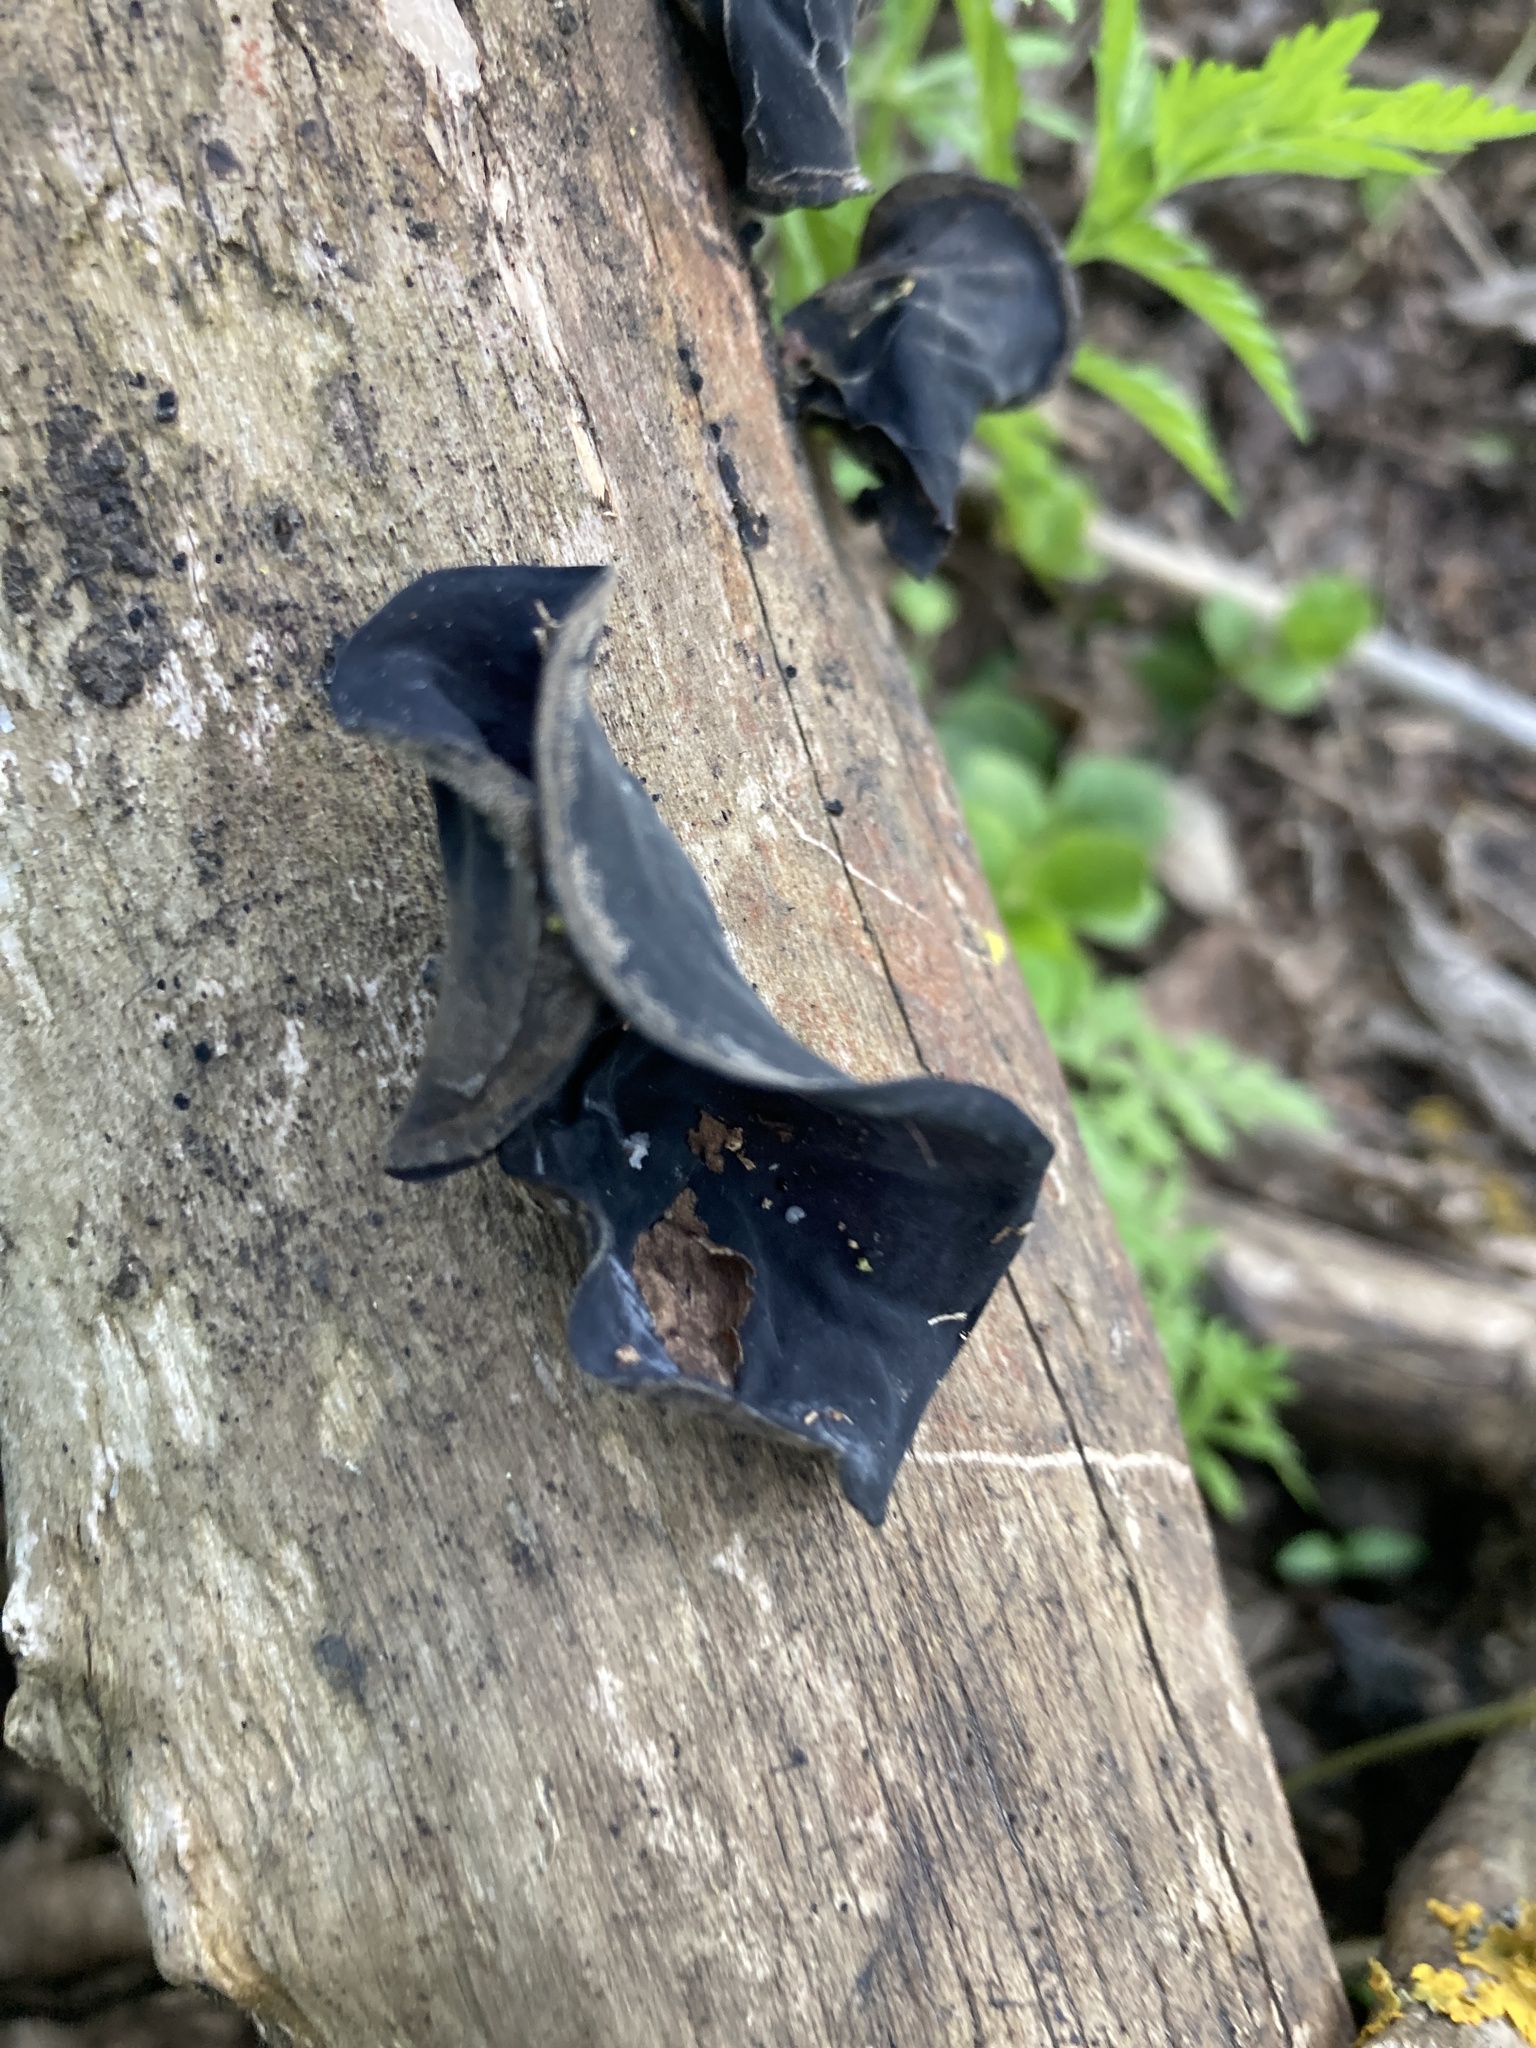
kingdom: Fungi
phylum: Basidiomycota
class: Agaricomycetes
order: Auriculariales
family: Auriculariaceae
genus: Auricularia
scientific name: Auricularia auricula-judae
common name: Jelly ear
